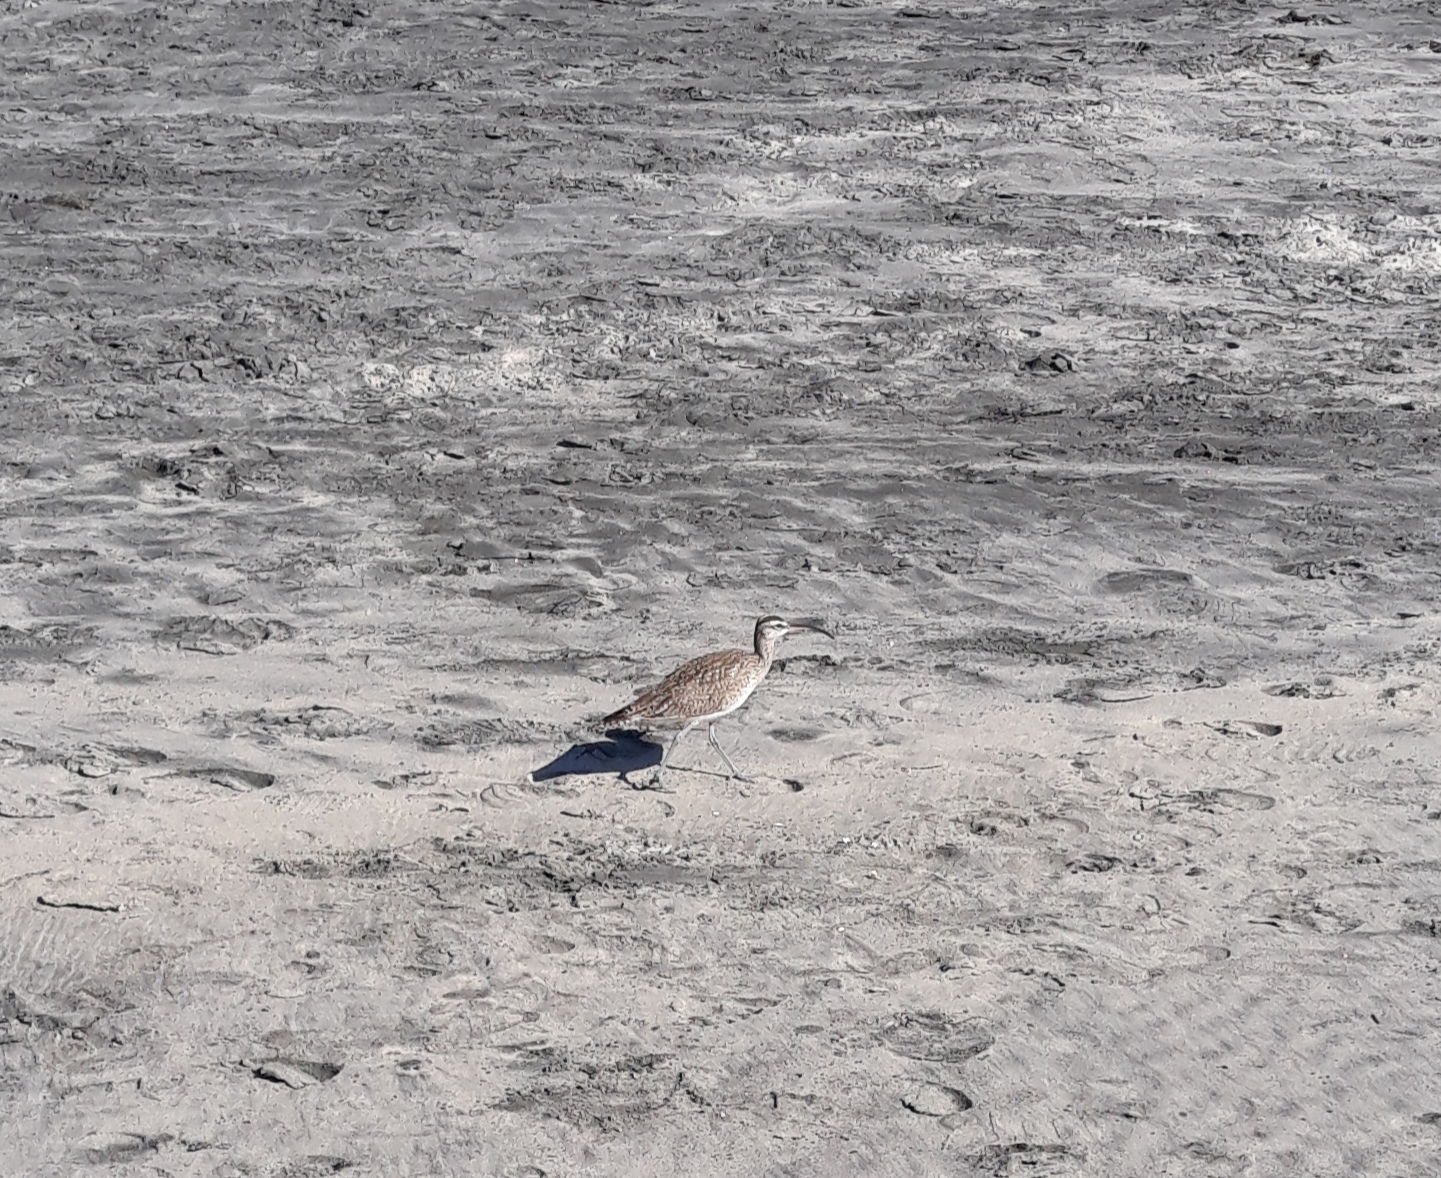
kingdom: Animalia
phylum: Chordata
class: Aves
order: Charadriiformes
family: Scolopacidae
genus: Numenius
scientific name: Numenius phaeopus
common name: Whimbrel
